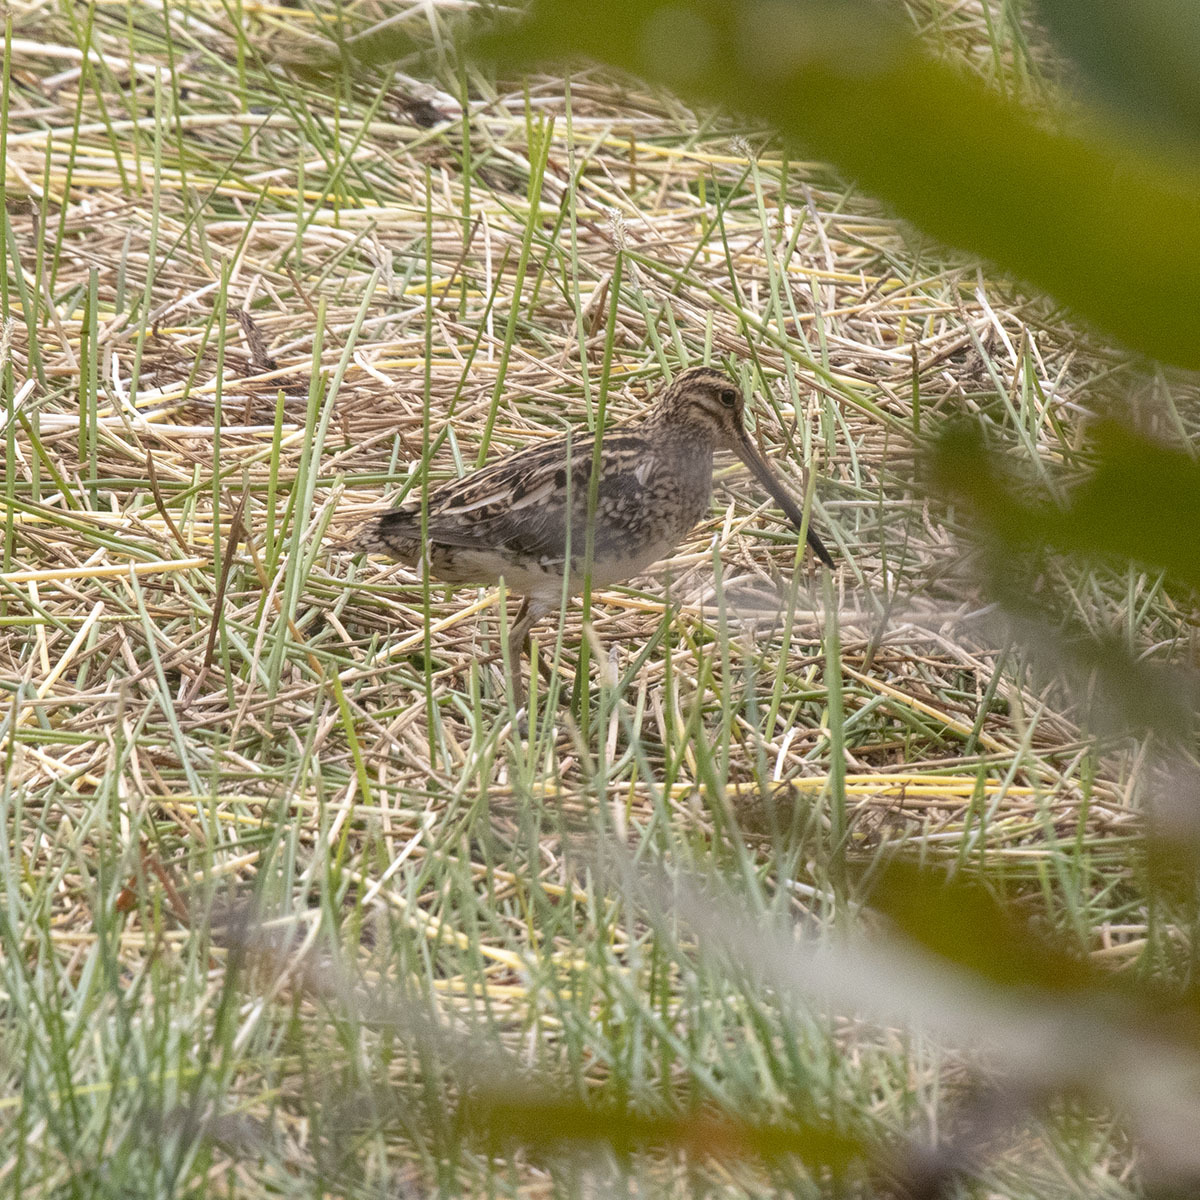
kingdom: Animalia
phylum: Chordata
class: Aves
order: Charadriiformes
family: Scolopacidae
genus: Gallinago
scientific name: Gallinago gallinago
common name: Common snipe
